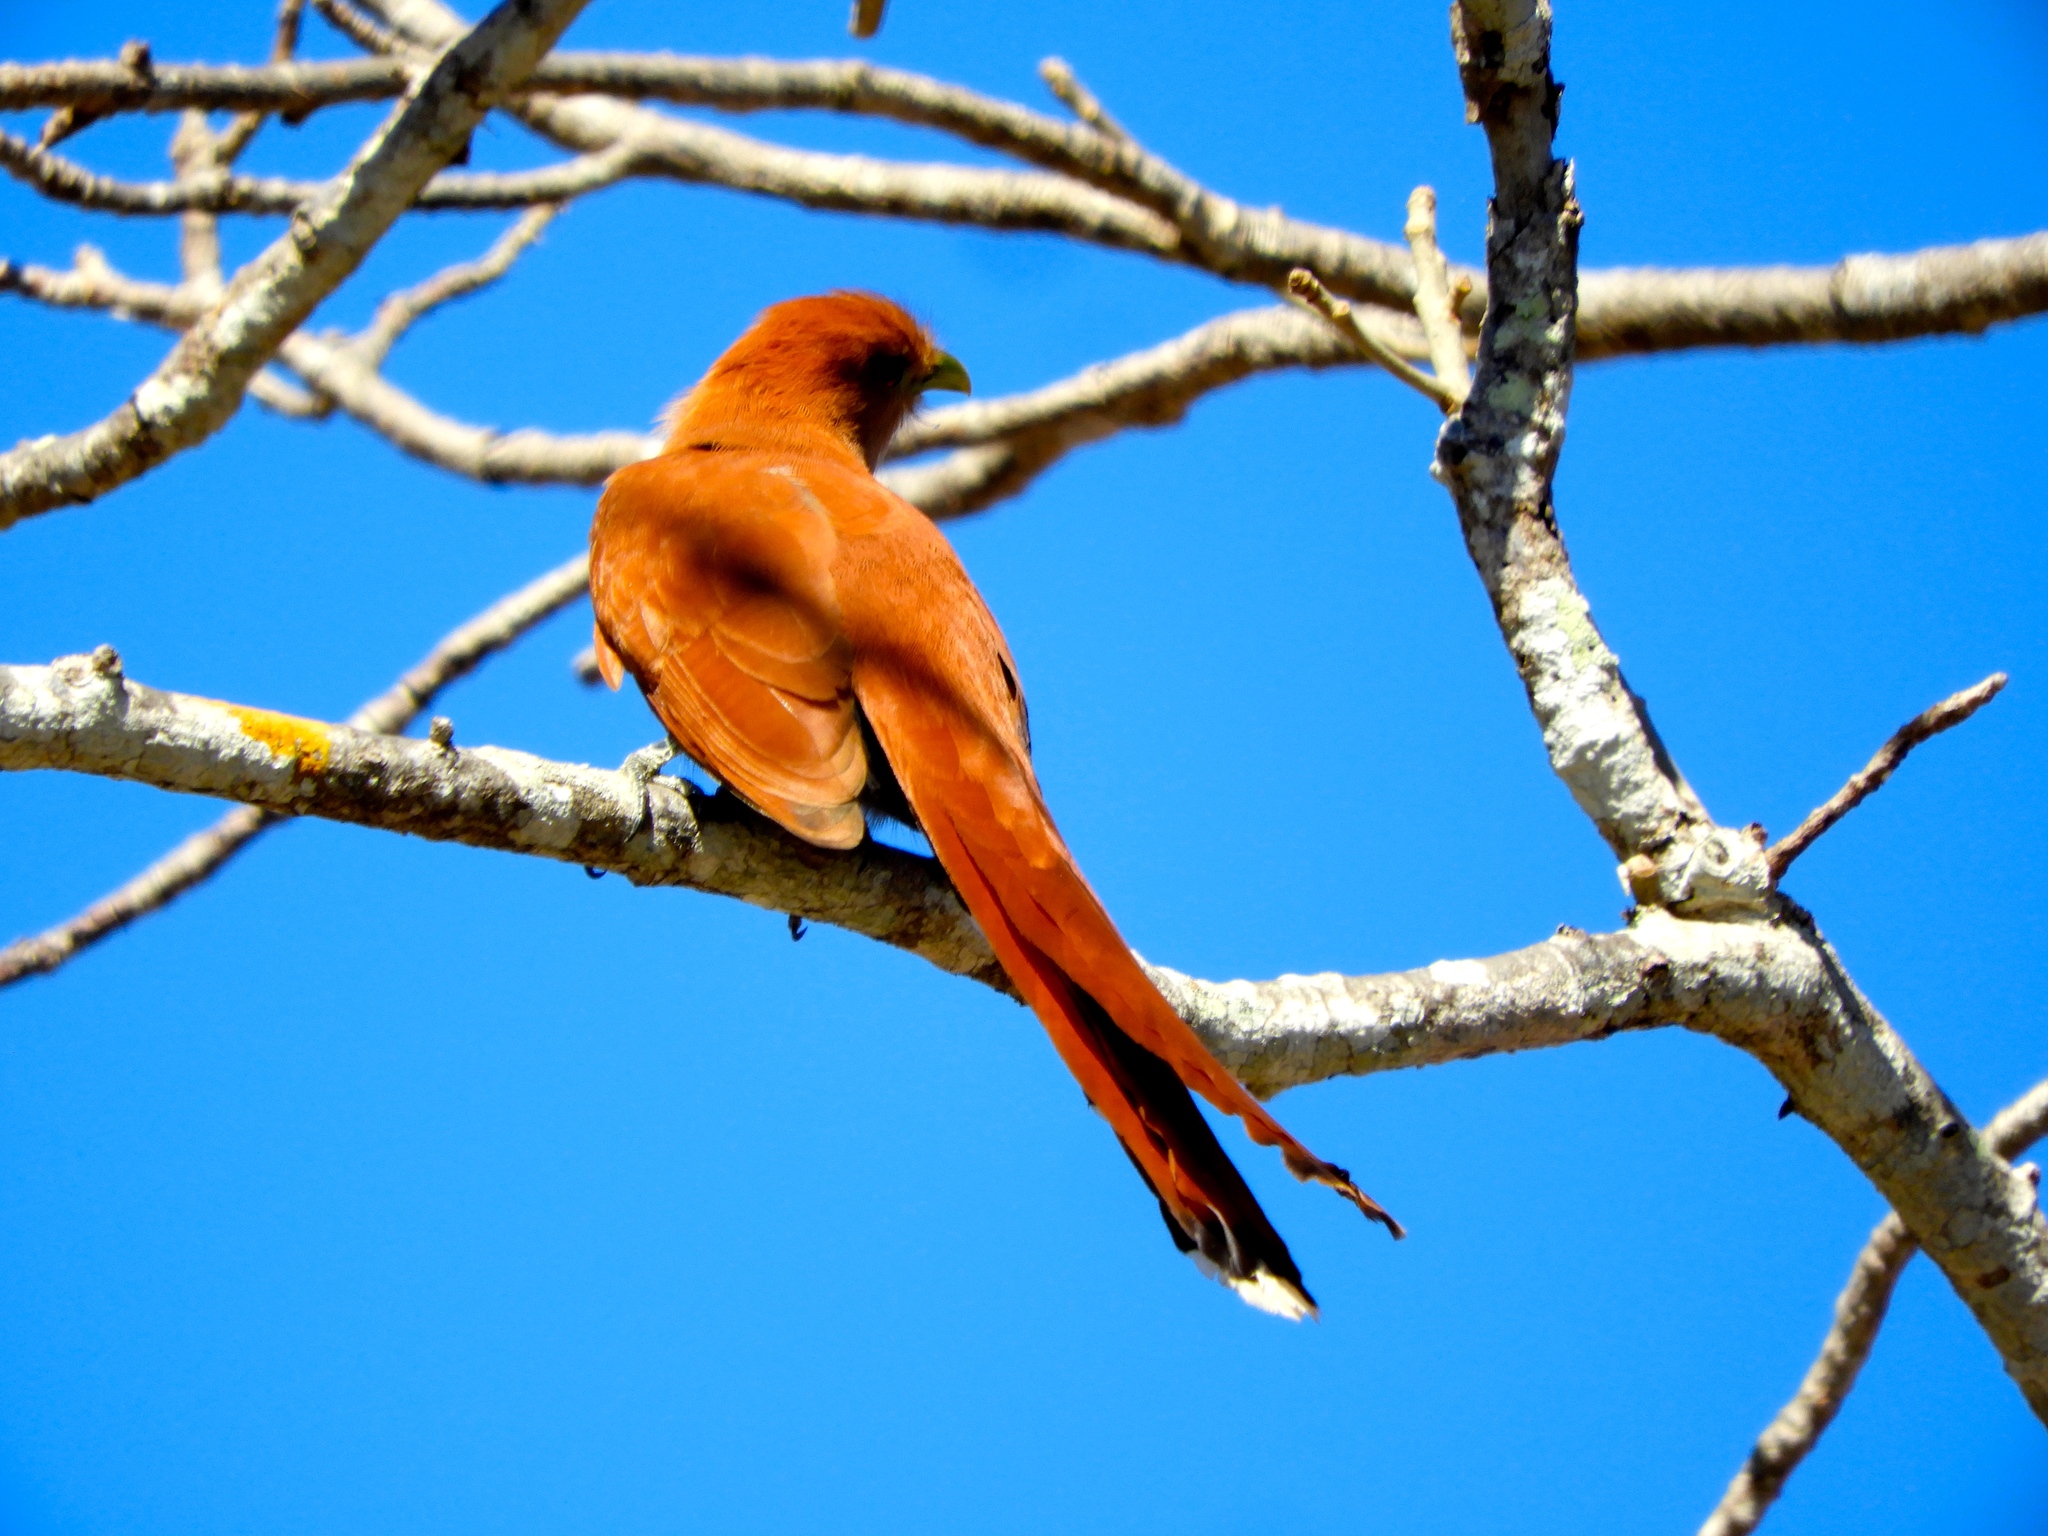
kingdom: Animalia
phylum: Chordata
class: Aves
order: Cuculiformes
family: Cuculidae
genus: Piaya
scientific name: Piaya cayana
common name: Squirrel cuckoo
